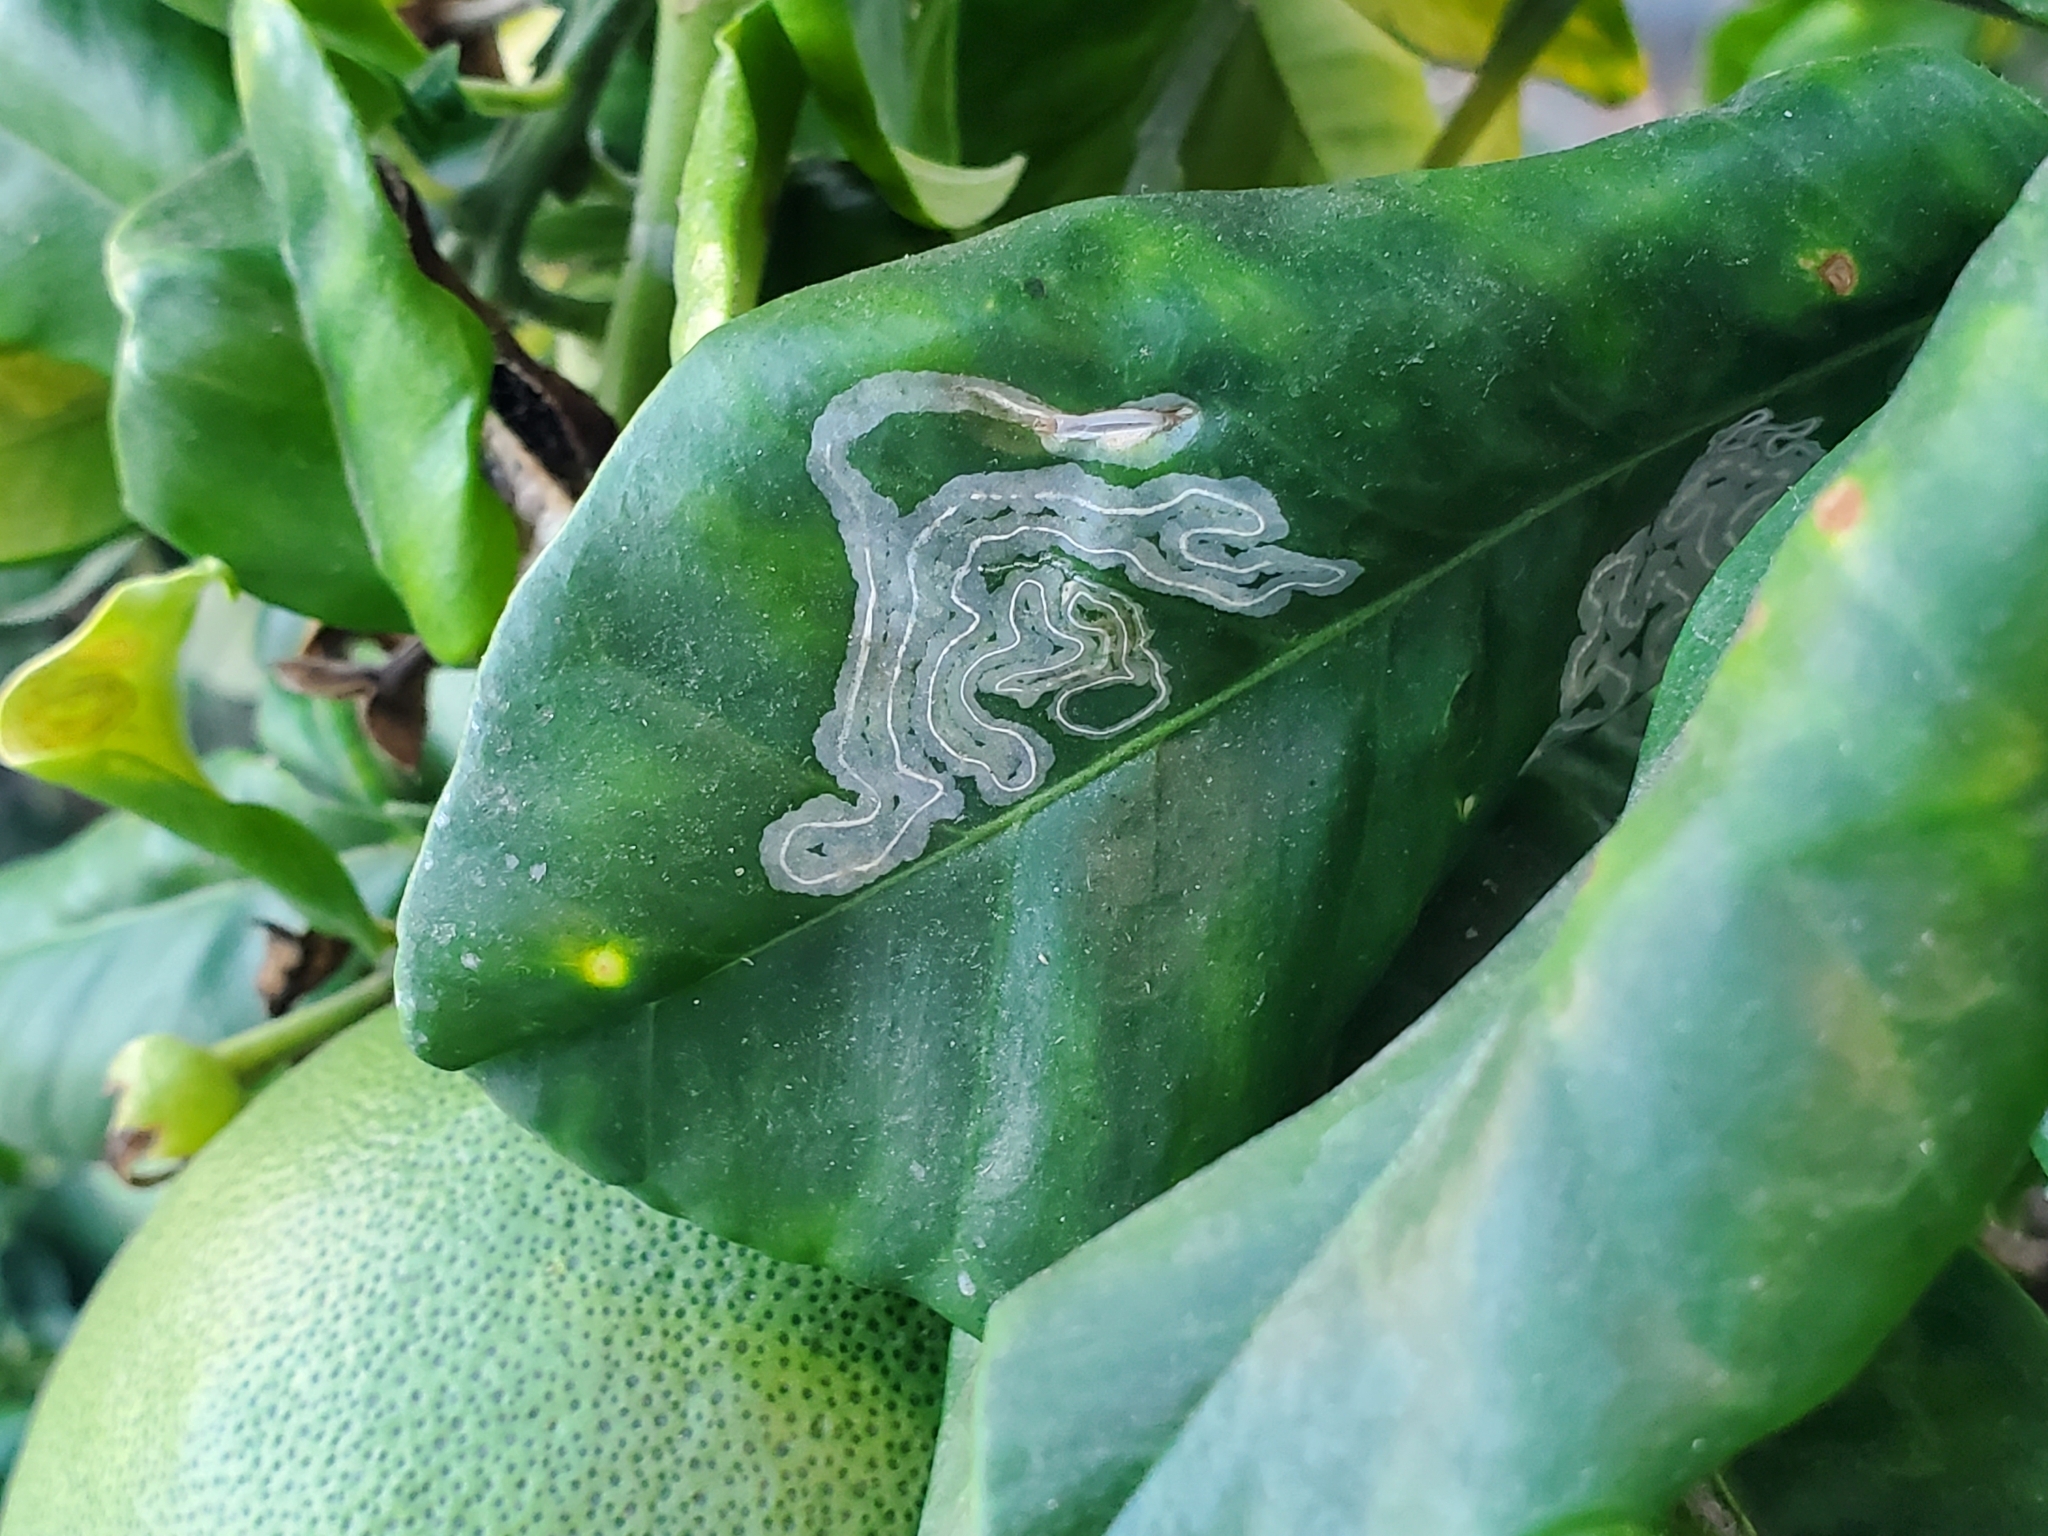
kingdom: Animalia
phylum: Arthropoda
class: Insecta
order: Lepidoptera
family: Gracillariidae
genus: Phyllocnistis
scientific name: Phyllocnistis citrella
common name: Citrus leafminer
